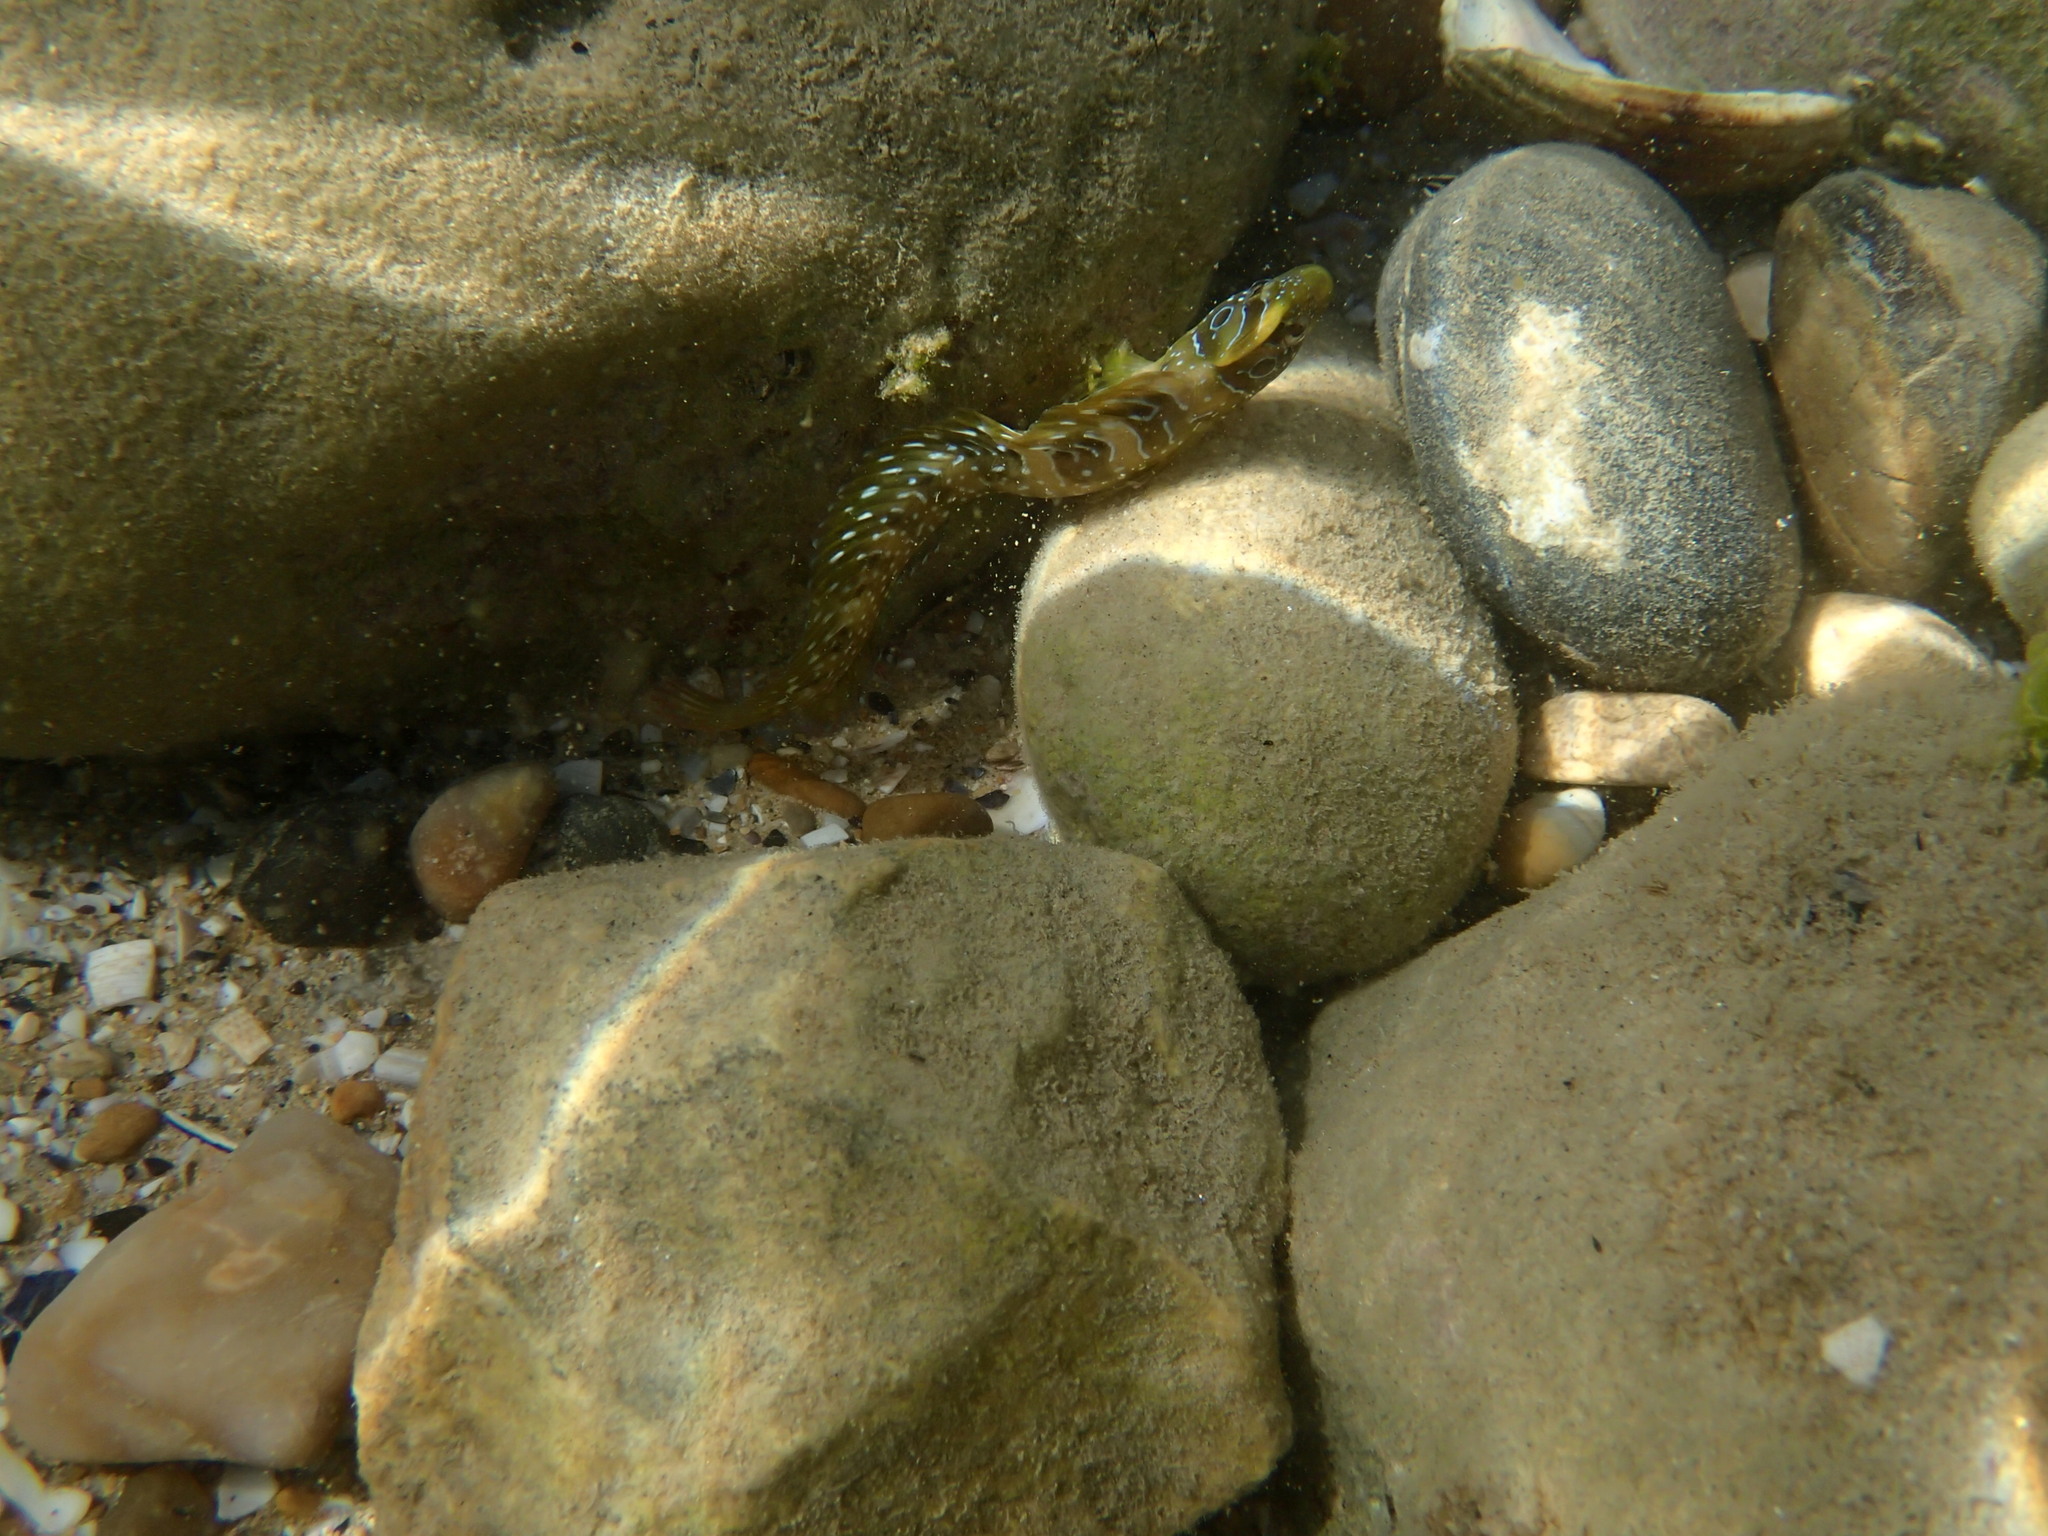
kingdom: Animalia
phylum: Chordata
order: Perciformes
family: Blenniidae
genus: Salaria
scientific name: Salaria pavo
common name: Peacock blenny
